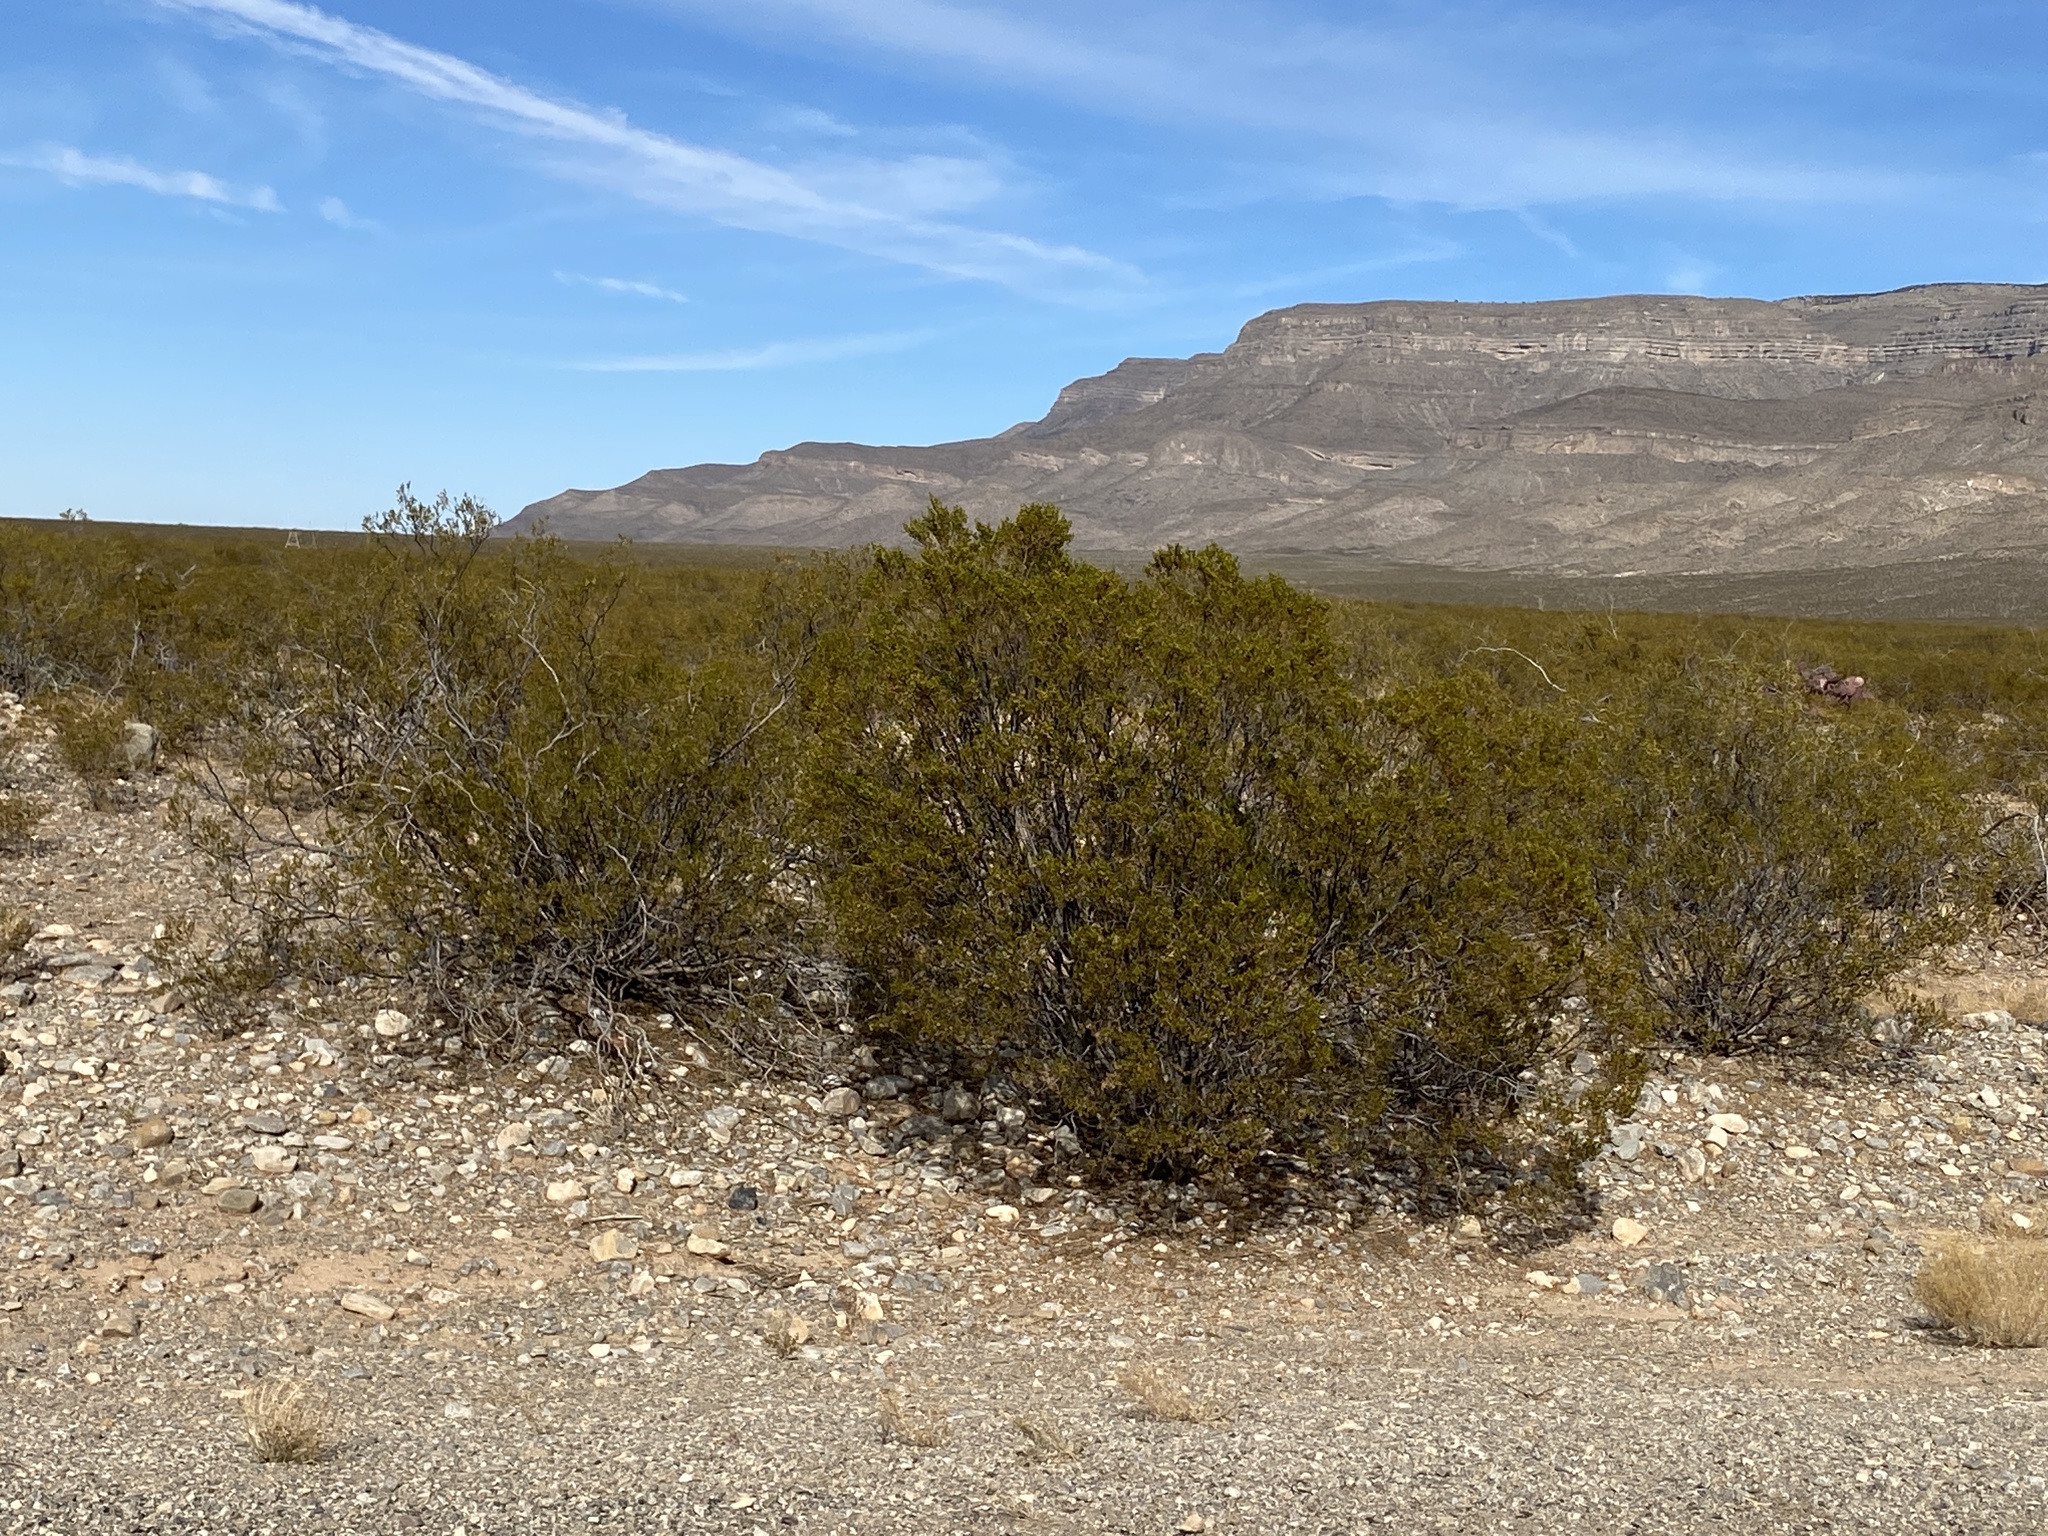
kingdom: Plantae
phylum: Tracheophyta
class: Magnoliopsida
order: Zygophyllales
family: Zygophyllaceae
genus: Larrea
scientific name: Larrea tridentata
